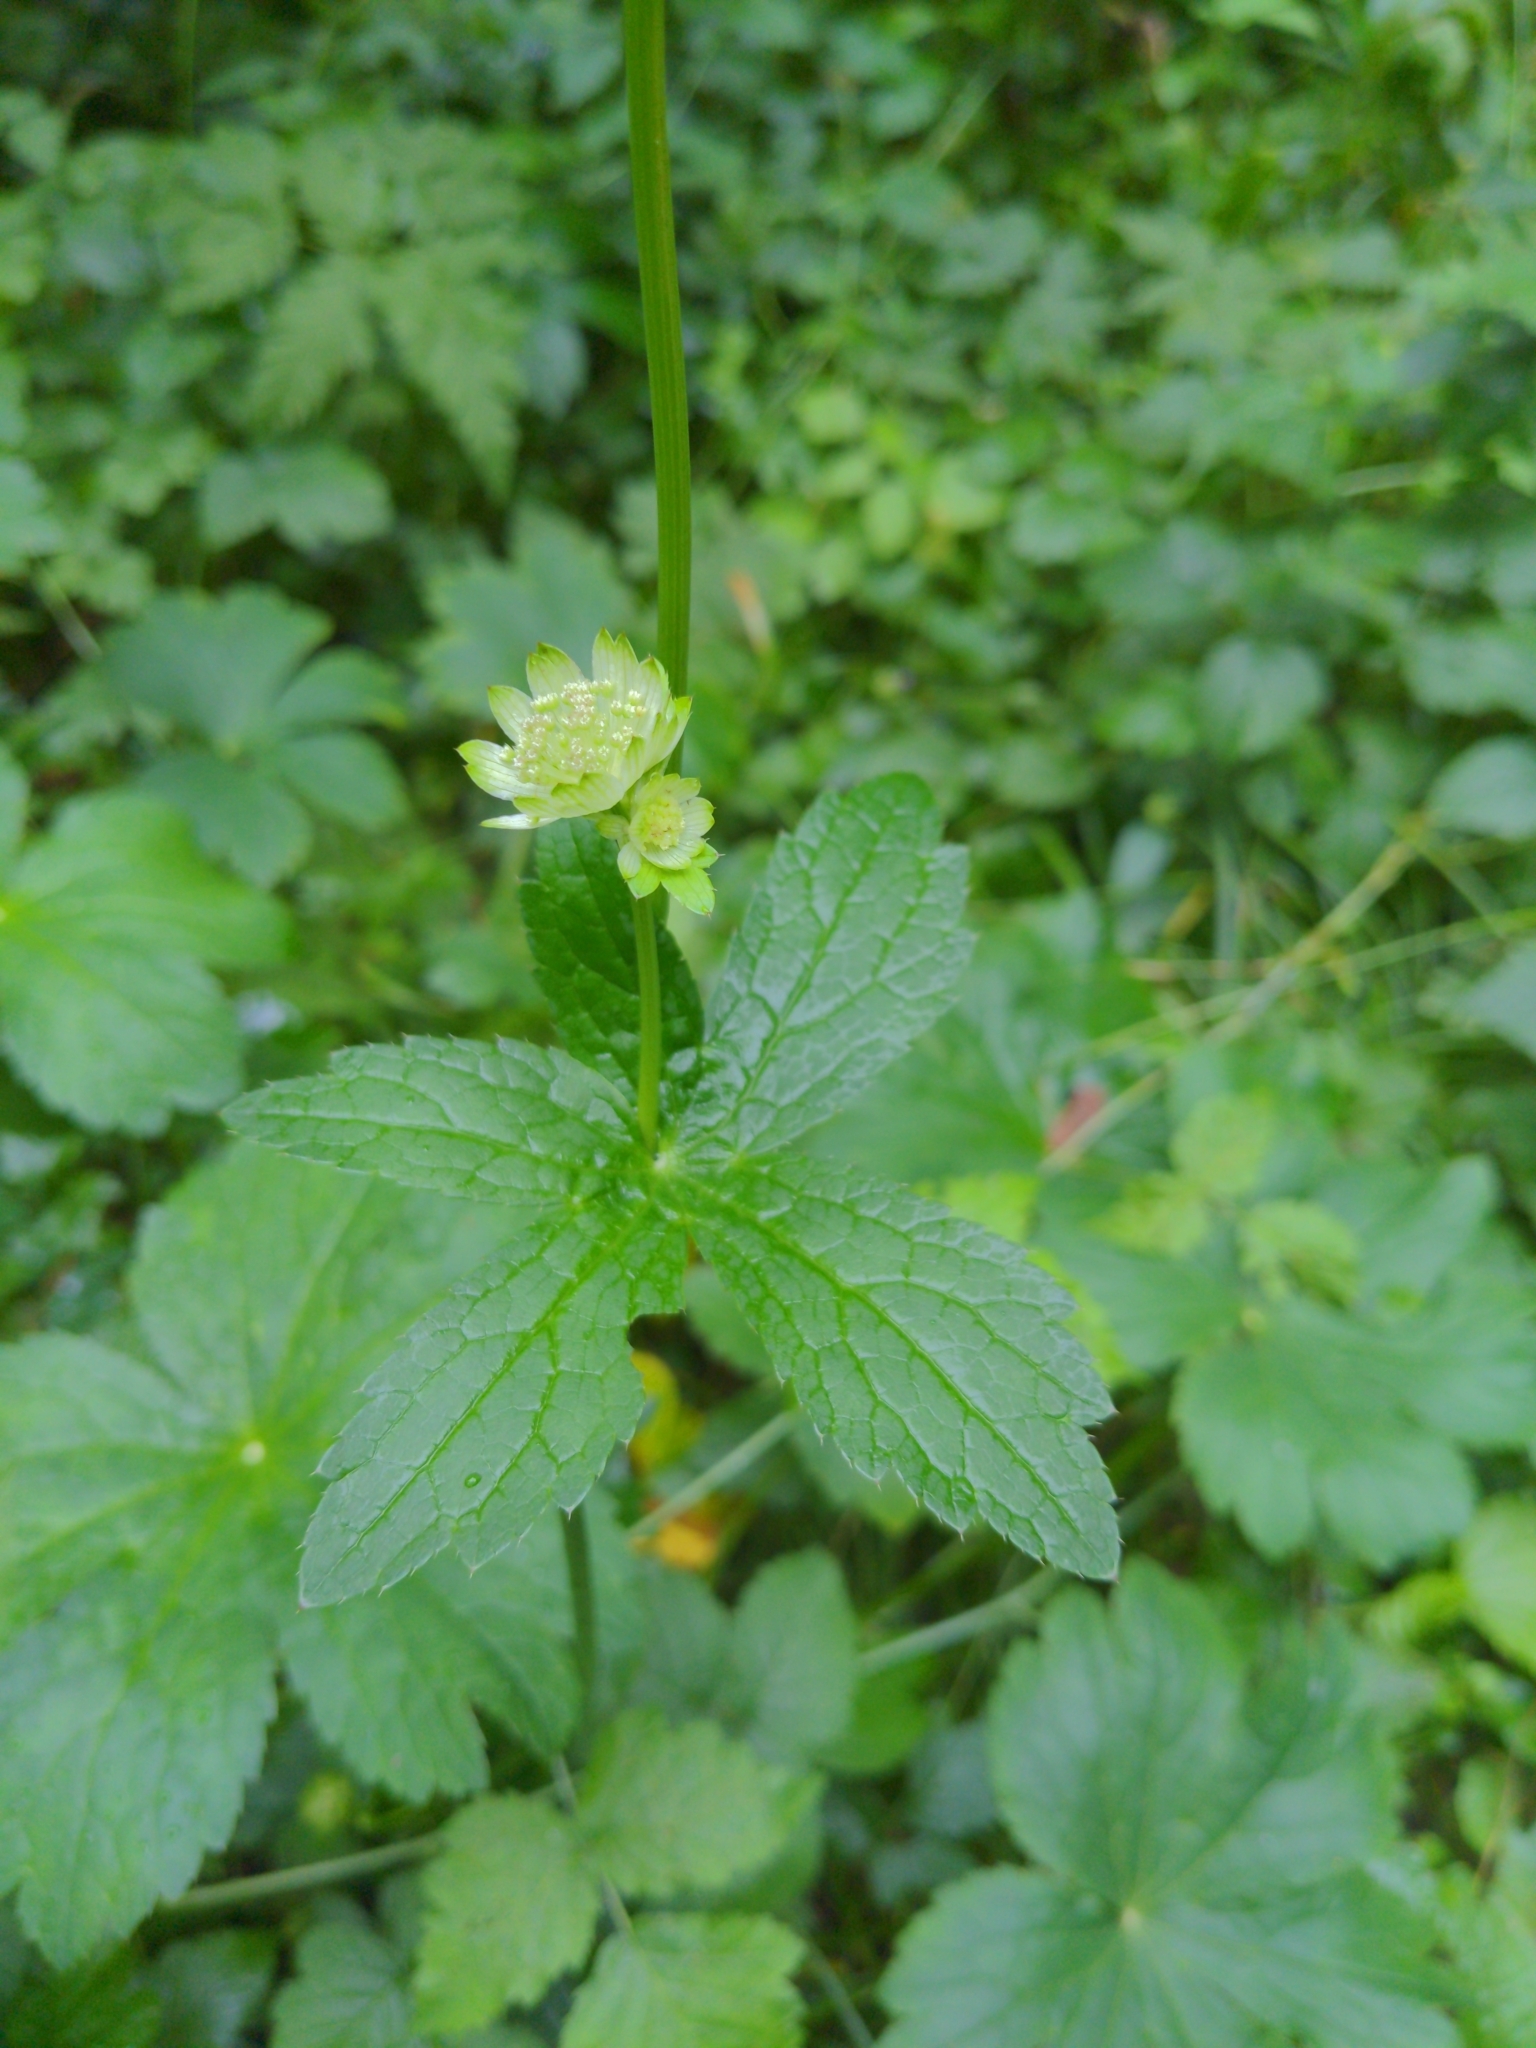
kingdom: Plantae
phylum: Tracheophyta
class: Magnoliopsida
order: Apiales
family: Apiaceae
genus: Astrantia
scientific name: Astrantia major
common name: Greater masterwort
